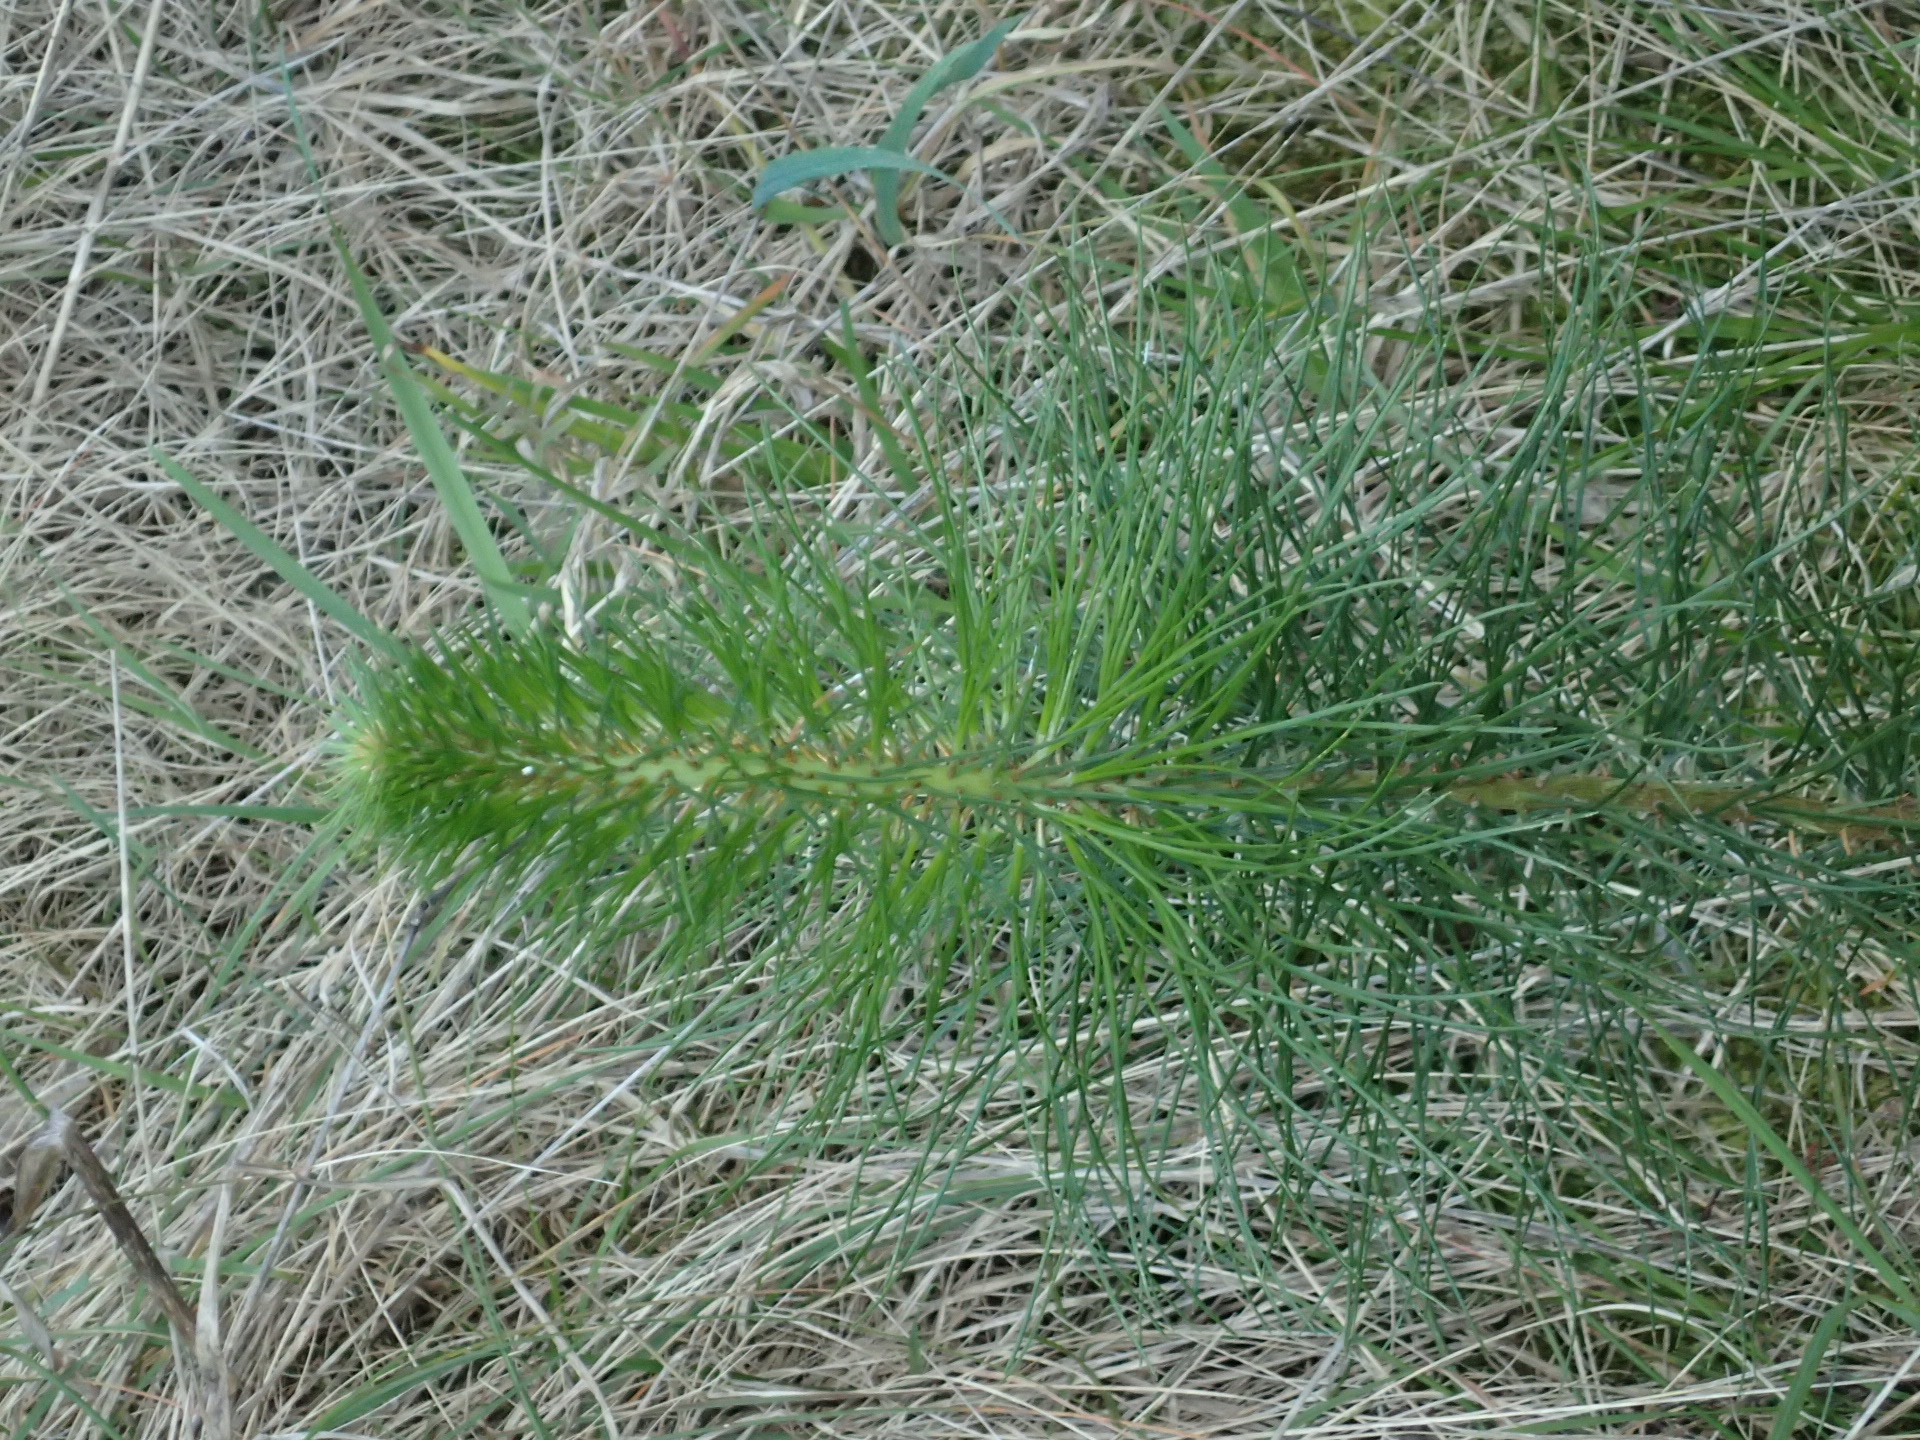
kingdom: Plantae
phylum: Tracheophyta
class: Pinopsida
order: Pinales
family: Pinaceae
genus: Pinus
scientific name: Pinus radiata
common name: Monterey pine
